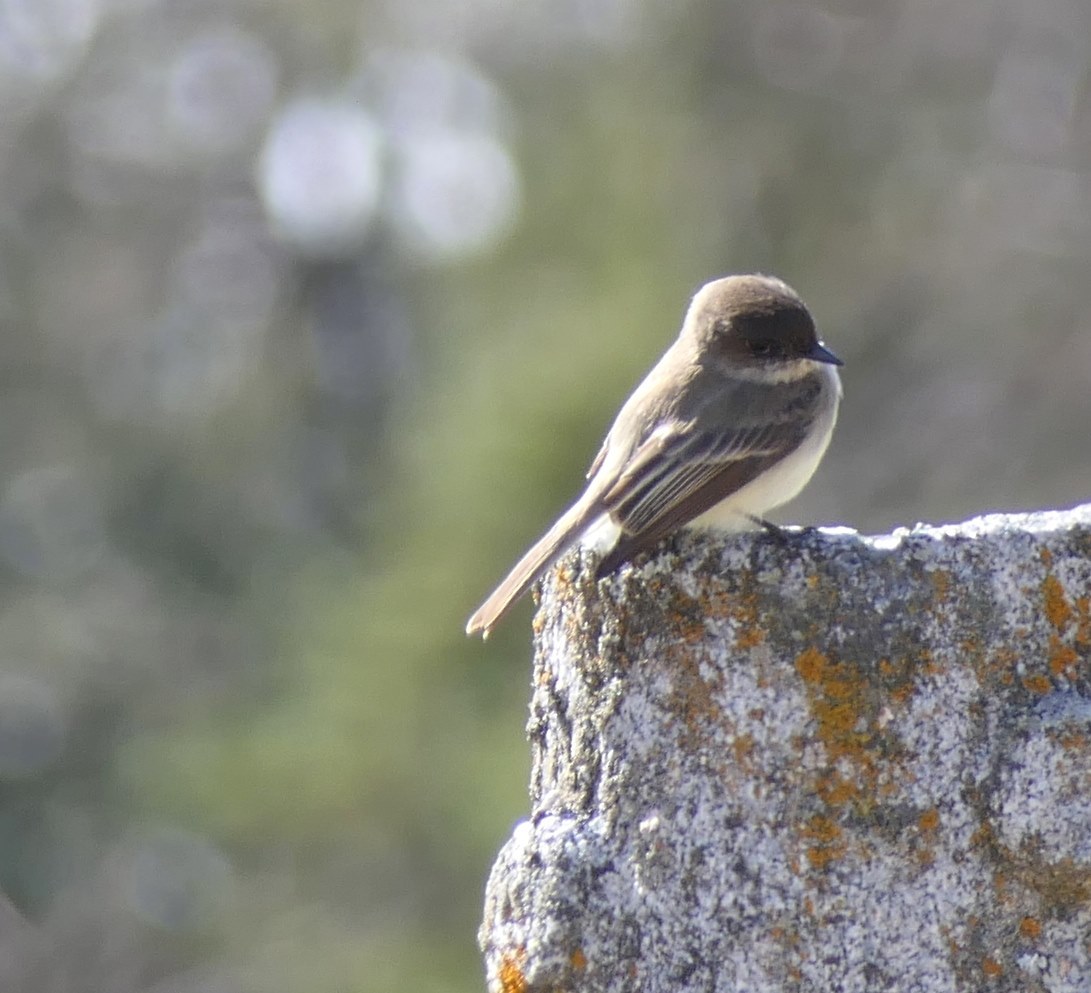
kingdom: Animalia
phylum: Chordata
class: Aves
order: Passeriformes
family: Tyrannidae
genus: Sayornis
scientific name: Sayornis phoebe
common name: Eastern phoebe
